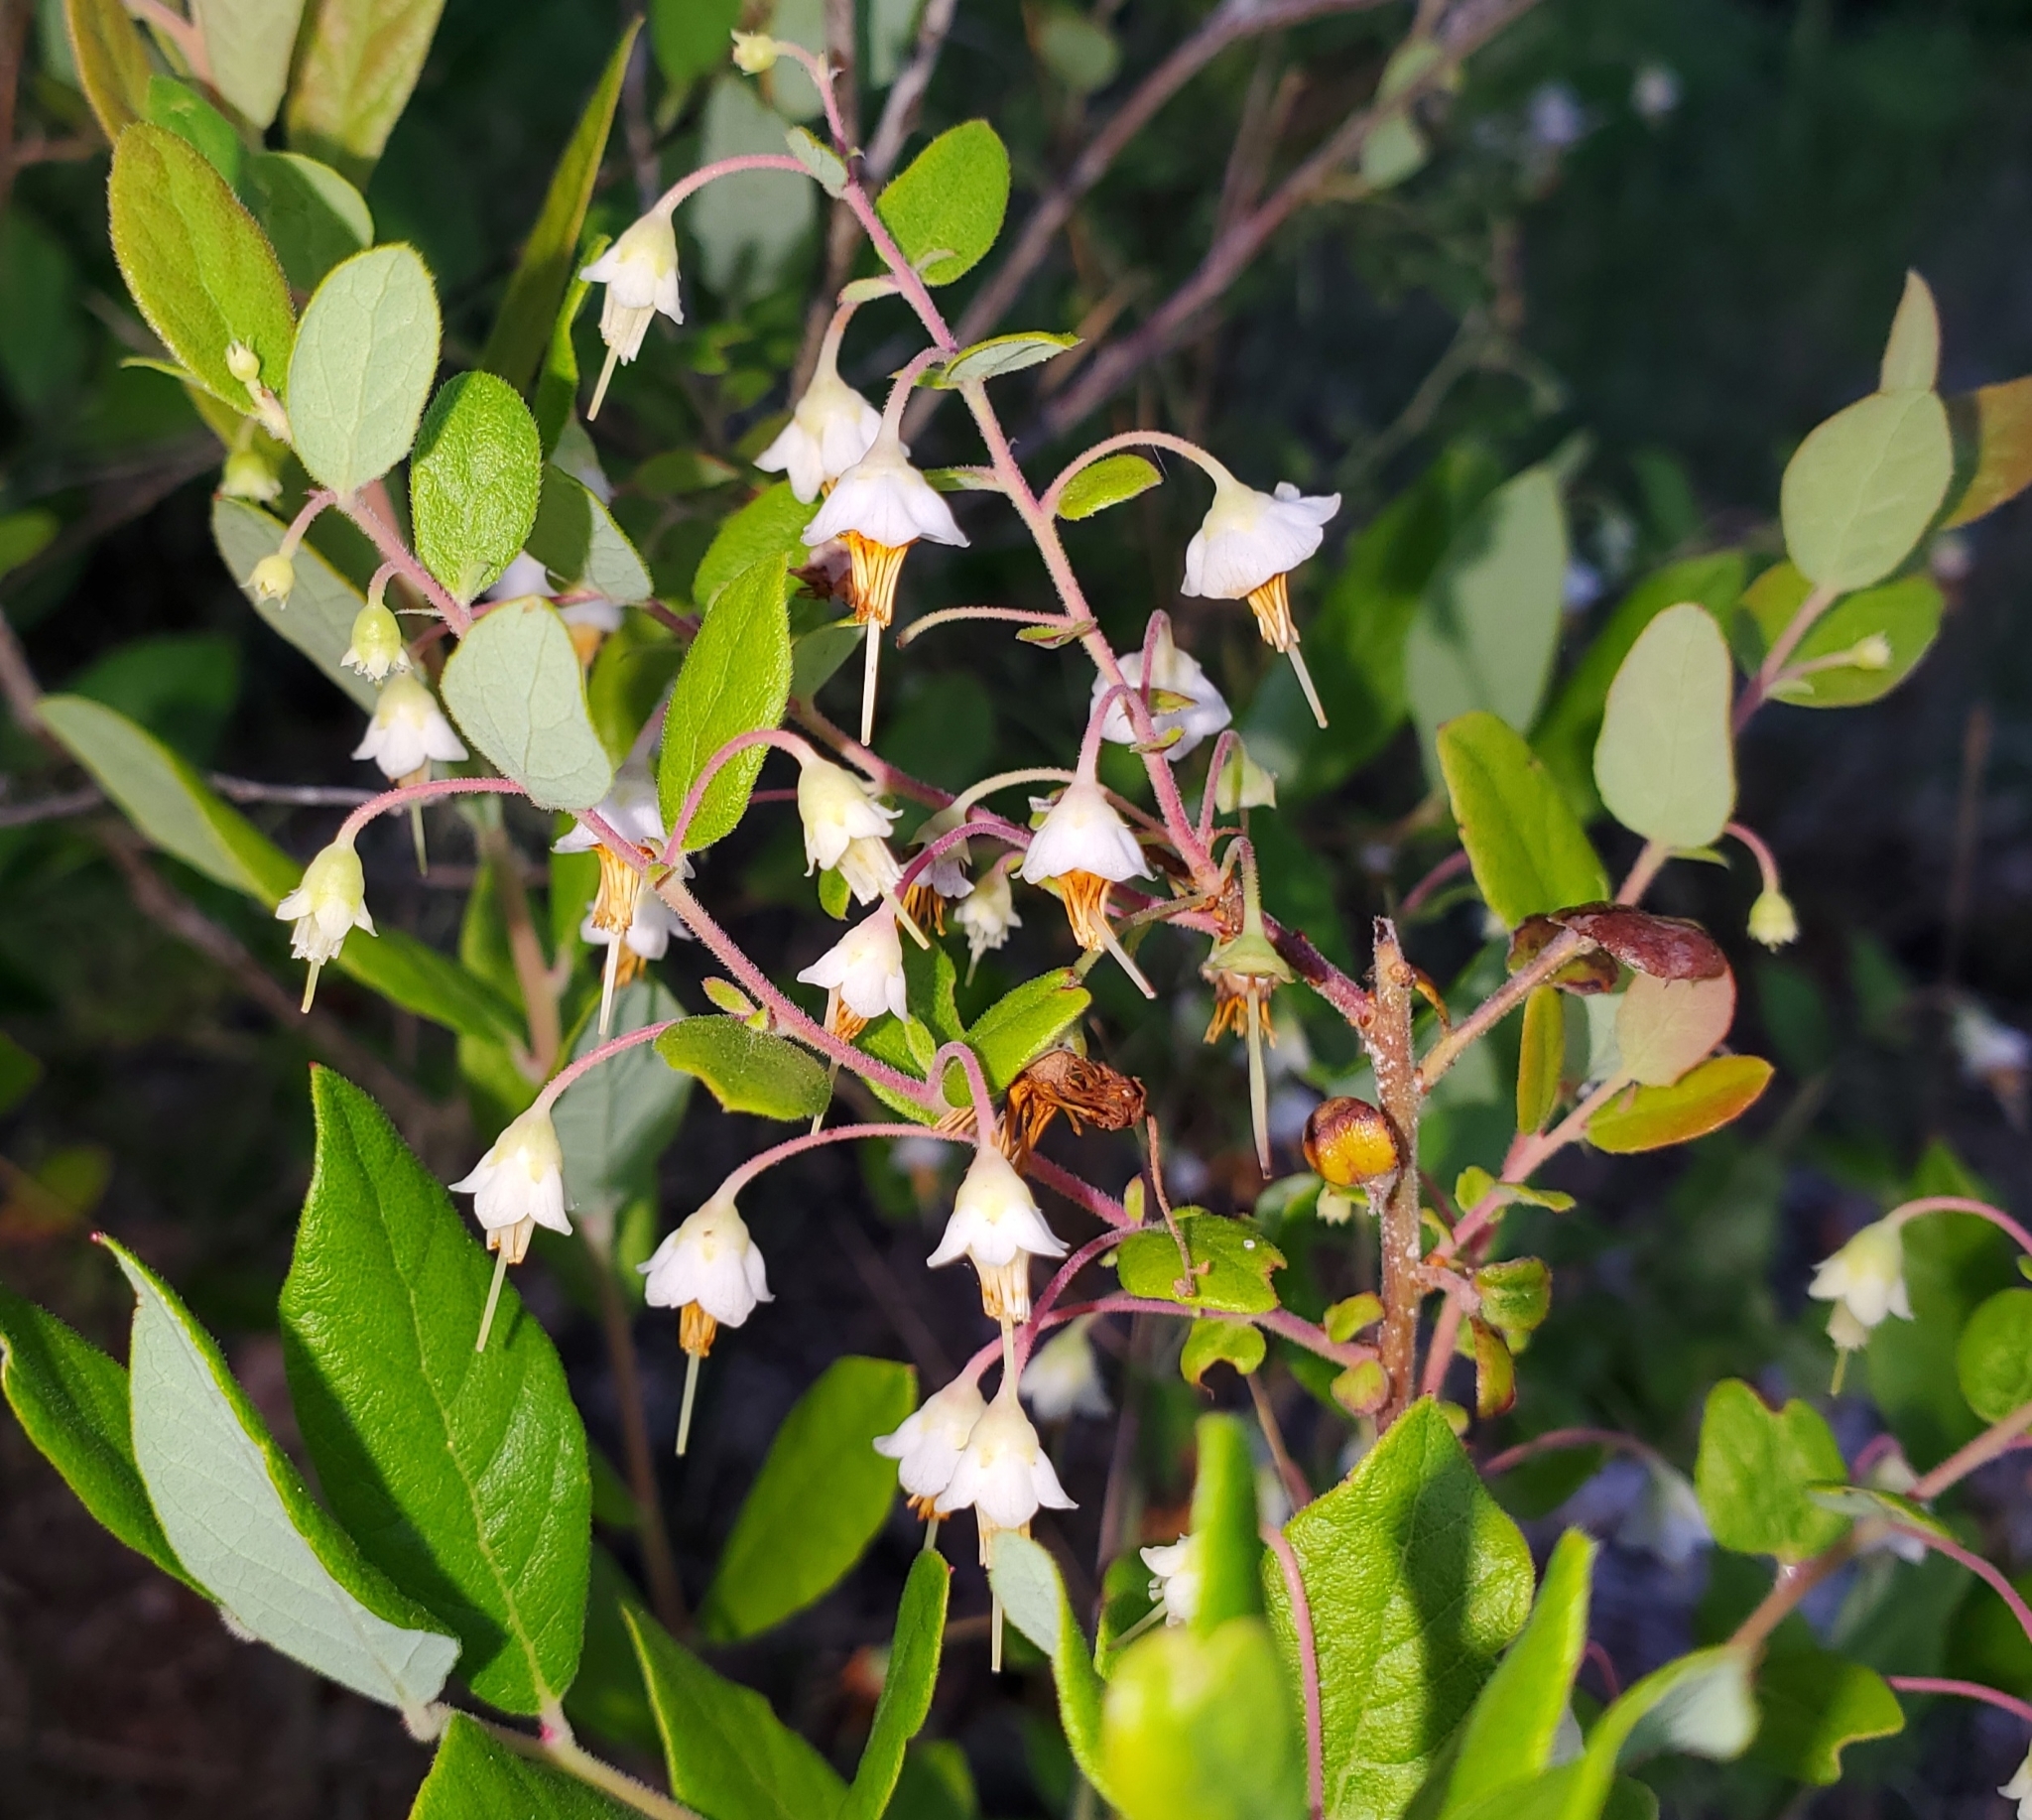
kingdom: Plantae
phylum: Tracheophyta
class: Magnoliopsida
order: Ericales
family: Ericaceae
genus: Vaccinium
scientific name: Vaccinium stamineum
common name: Deerberry
